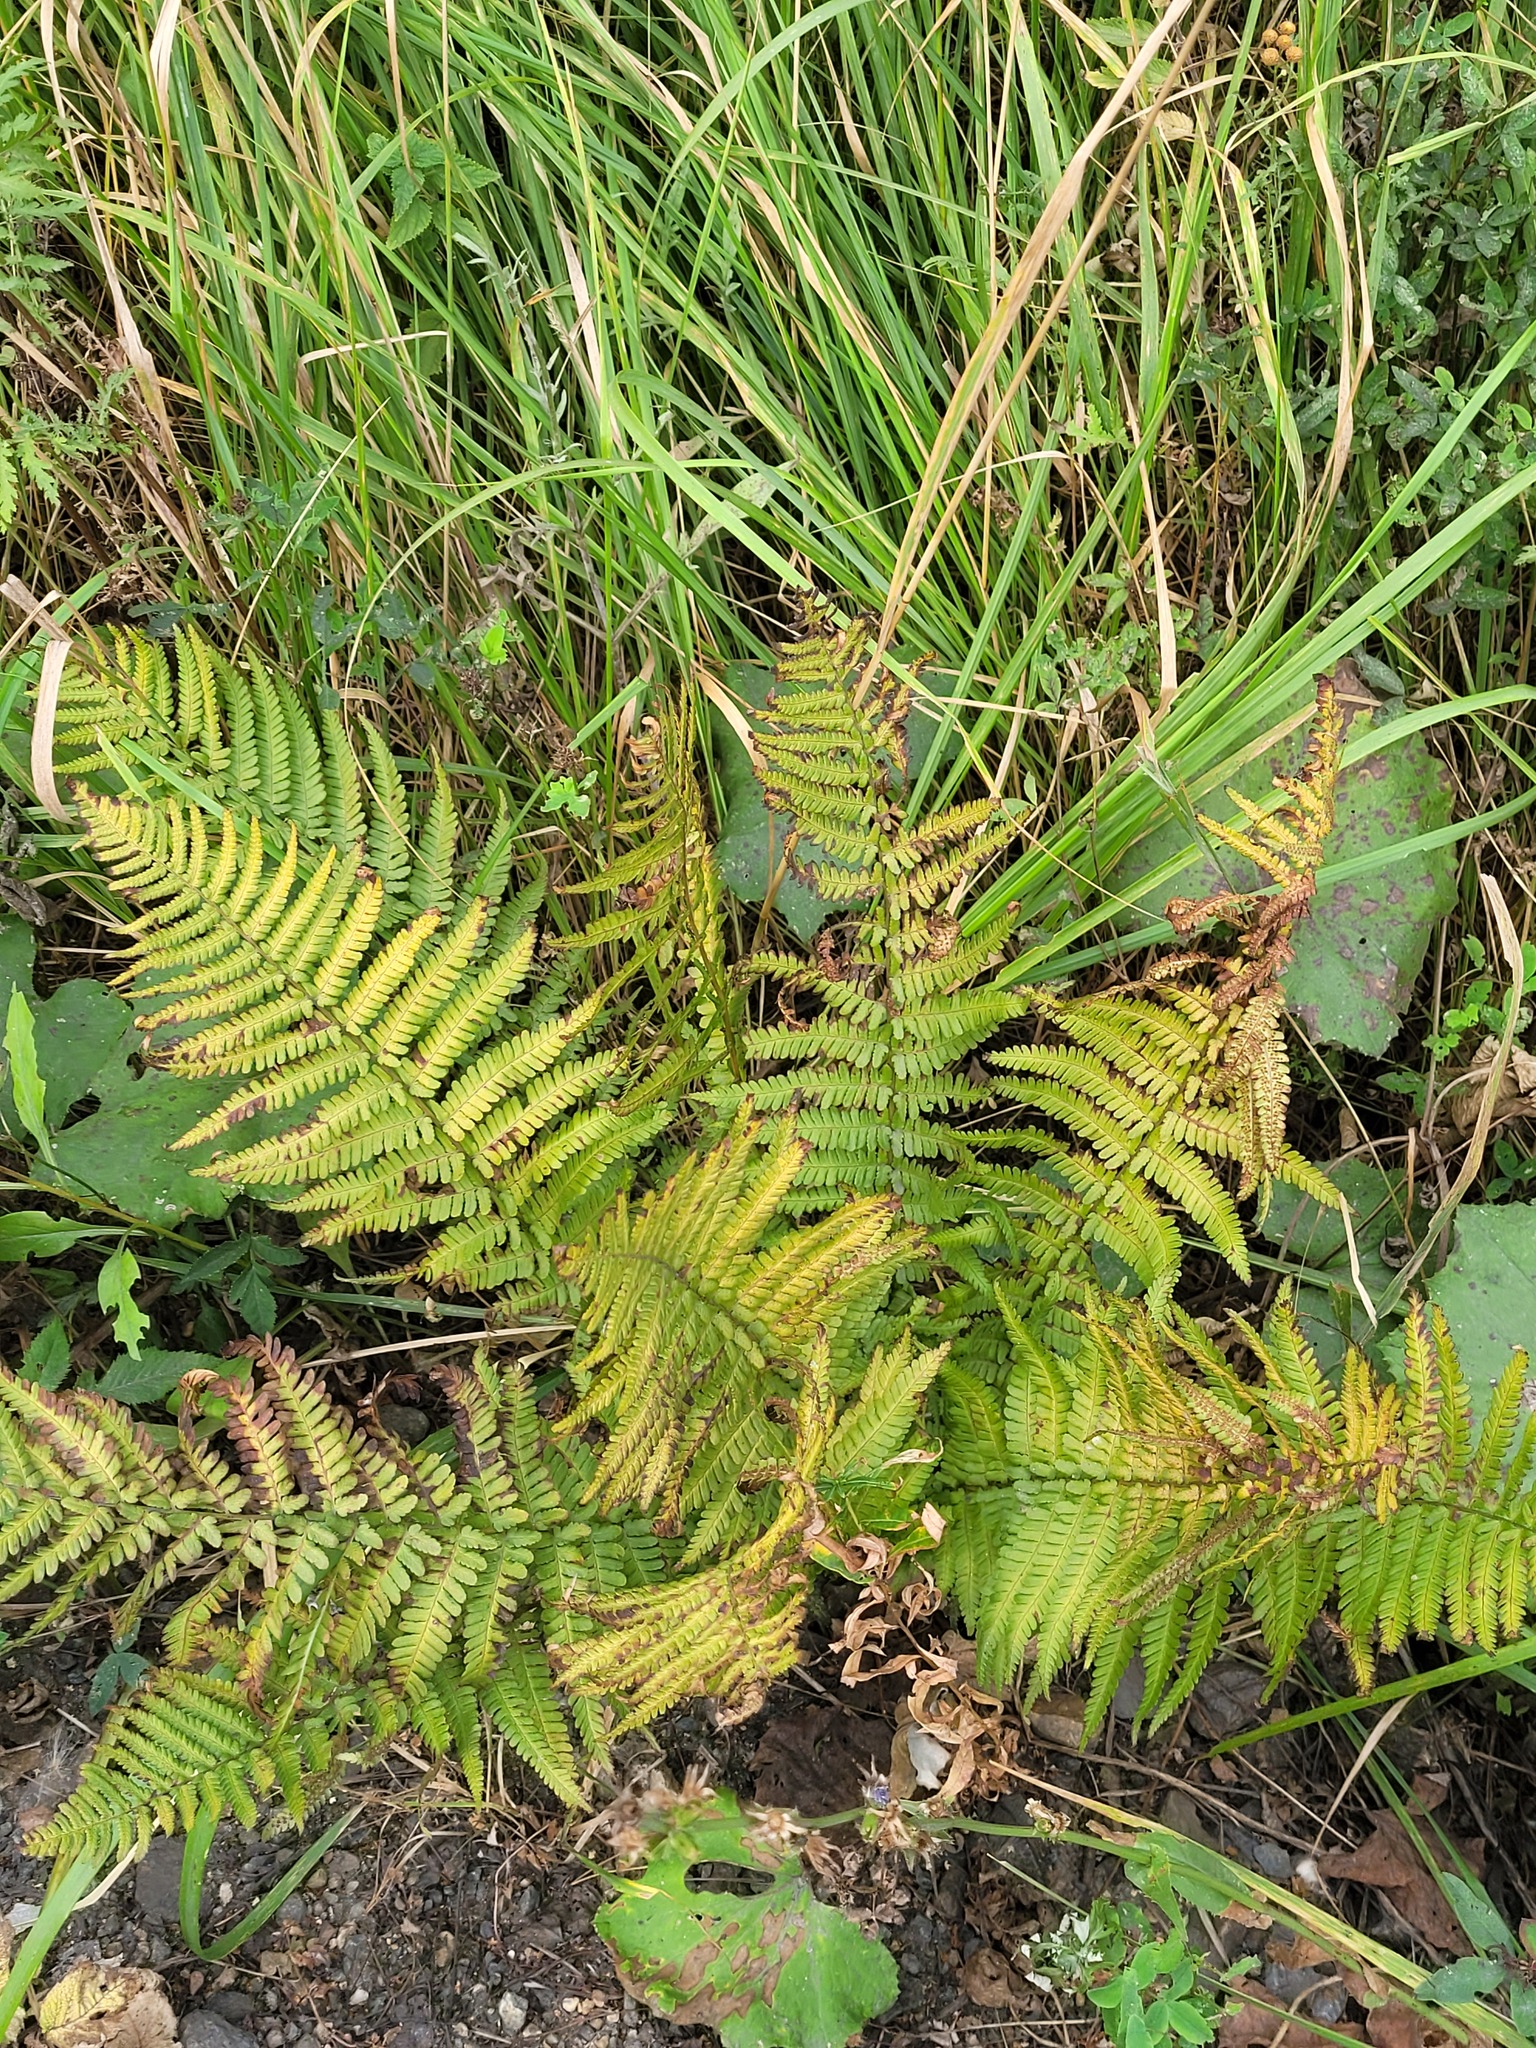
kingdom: Plantae
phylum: Tracheophyta
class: Polypodiopsida
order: Polypodiales
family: Dryopteridaceae
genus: Dryopteris
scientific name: Dryopteris filix-mas
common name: Male fern
